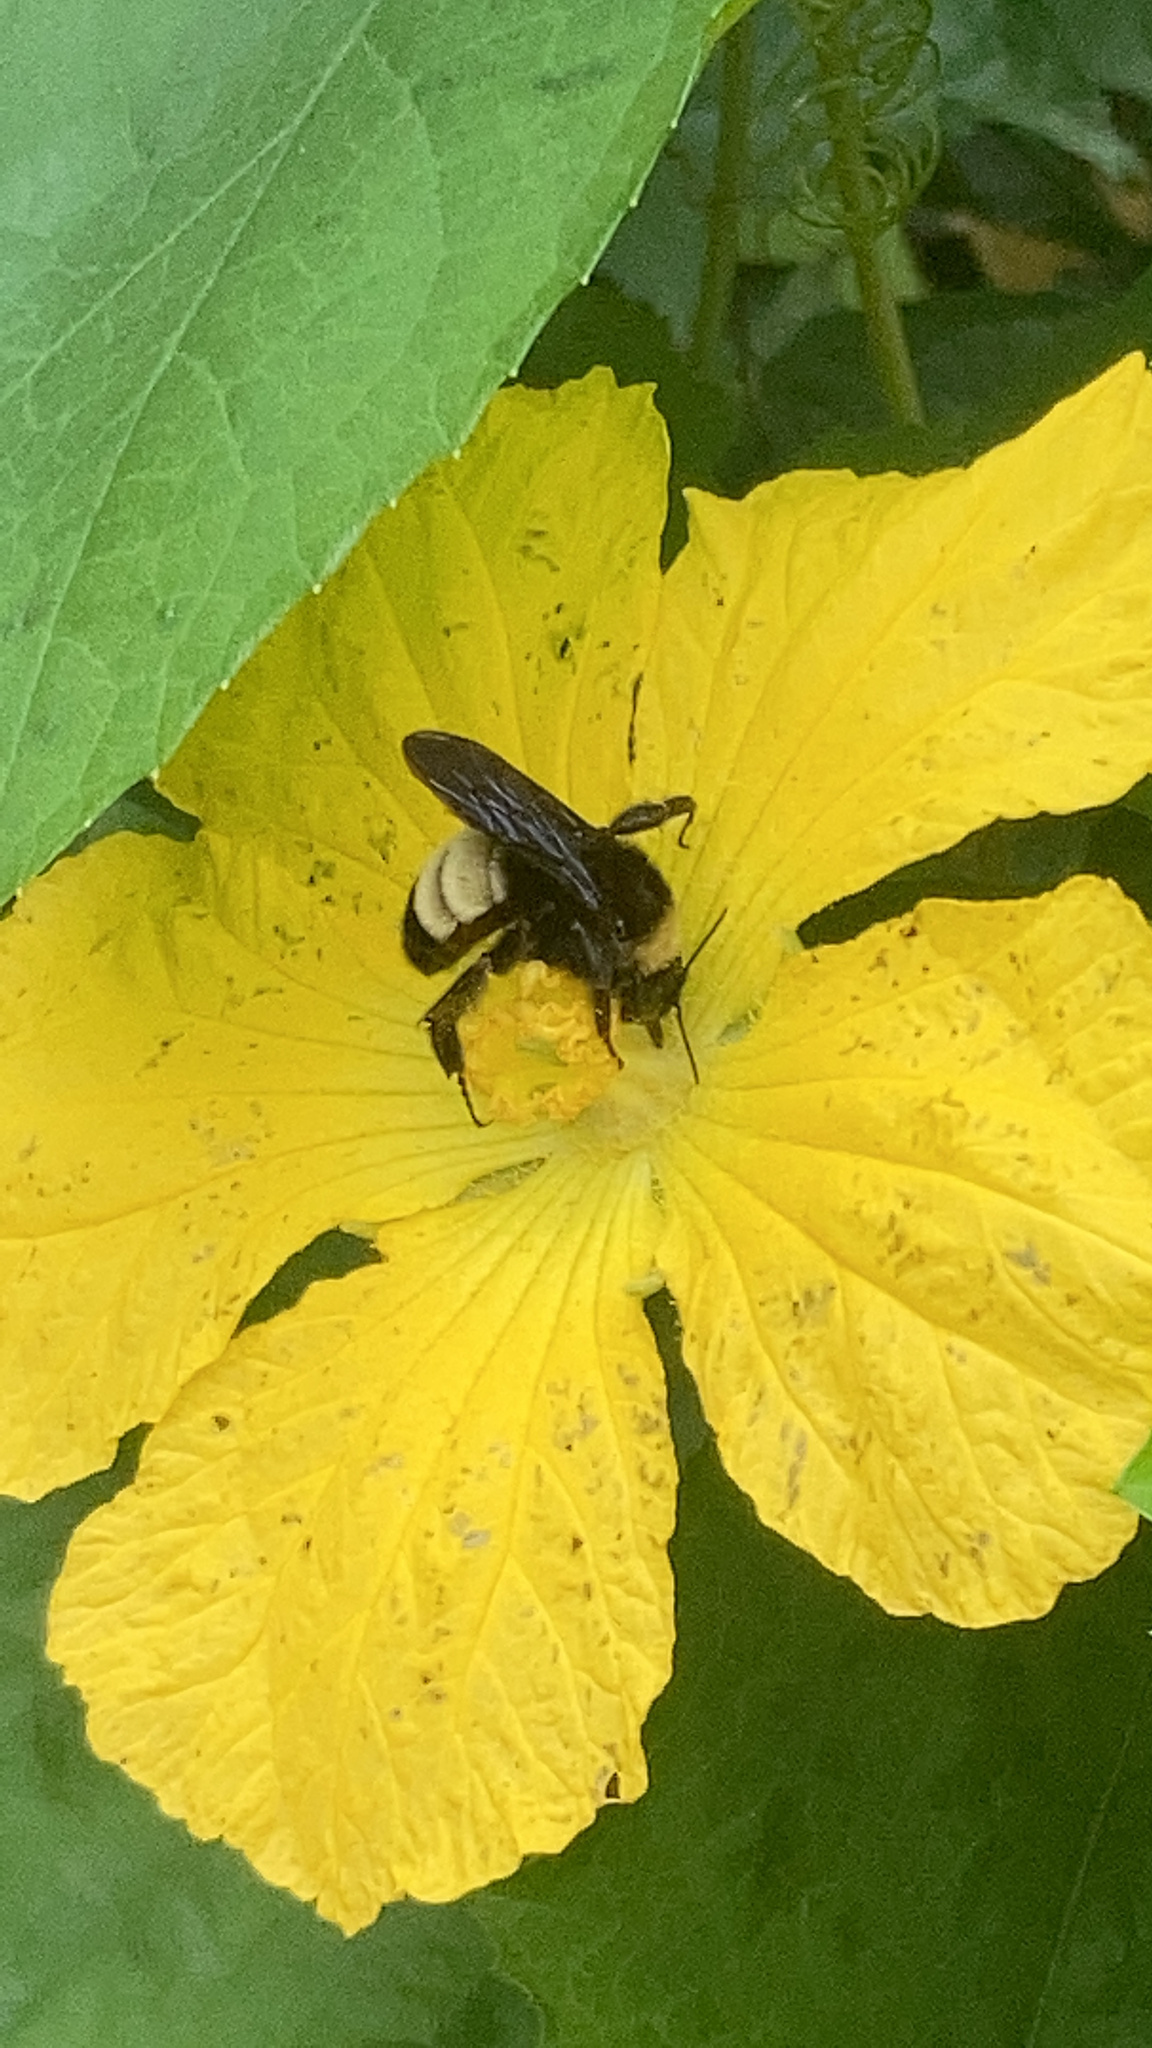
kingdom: Animalia
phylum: Arthropoda
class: Insecta
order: Hymenoptera
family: Apidae
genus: Bombus
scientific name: Bombus pensylvanicus
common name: Bumble bee
